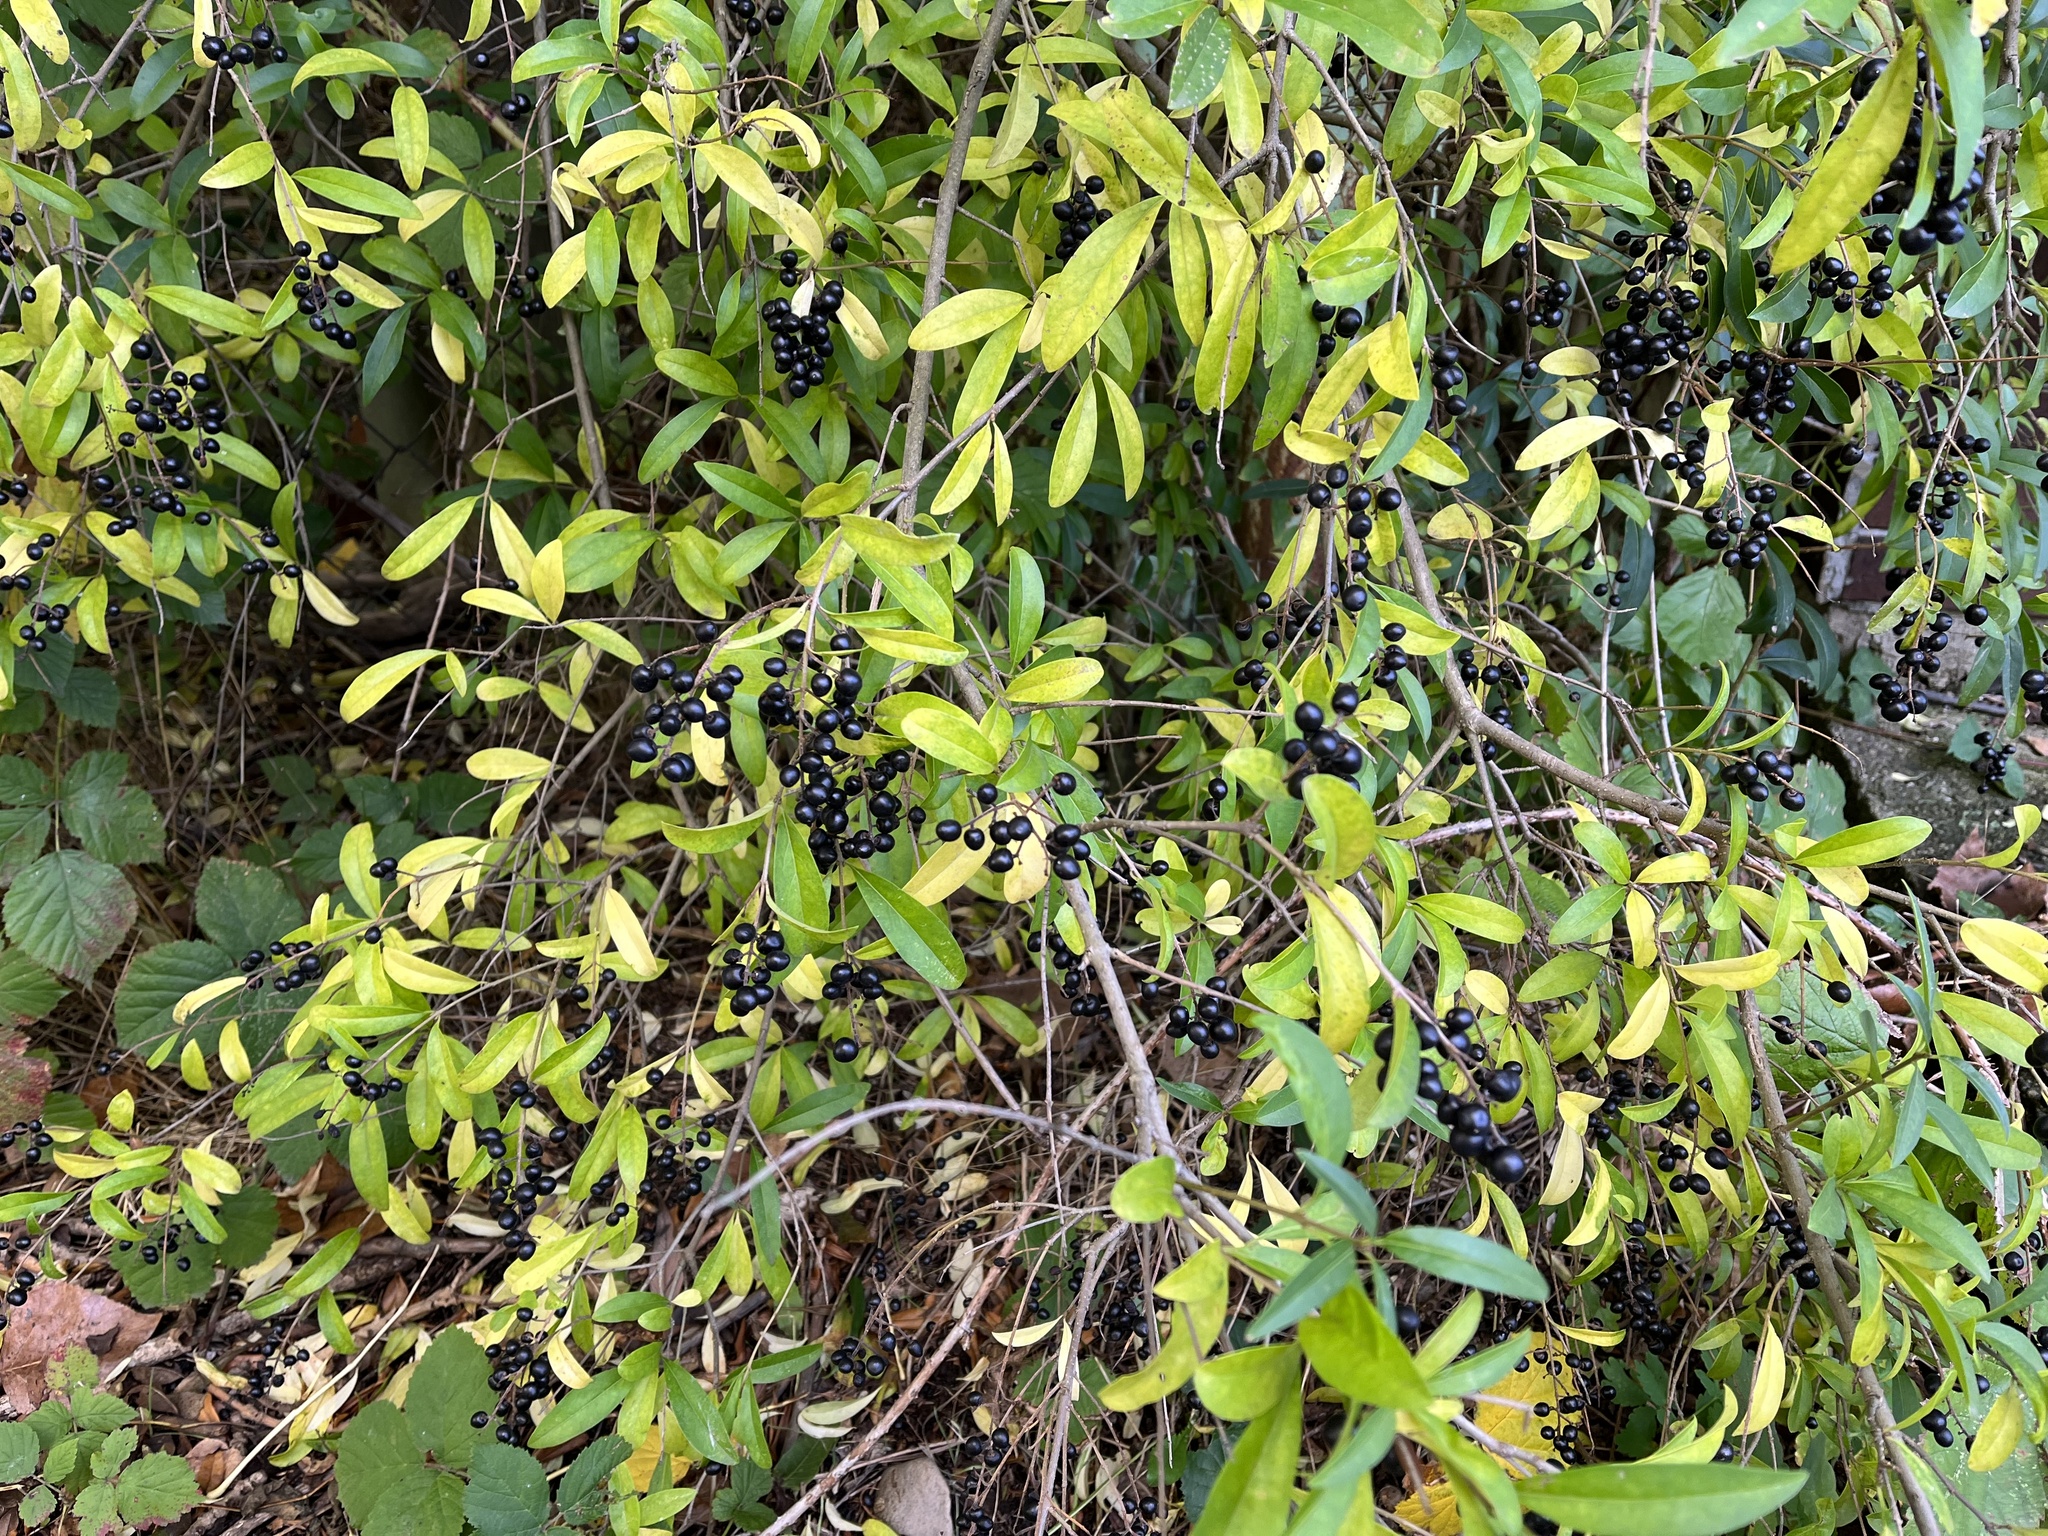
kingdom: Plantae
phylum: Tracheophyta
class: Magnoliopsida
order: Lamiales
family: Oleaceae
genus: Ligustrum
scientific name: Ligustrum vulgare
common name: Wild privet
